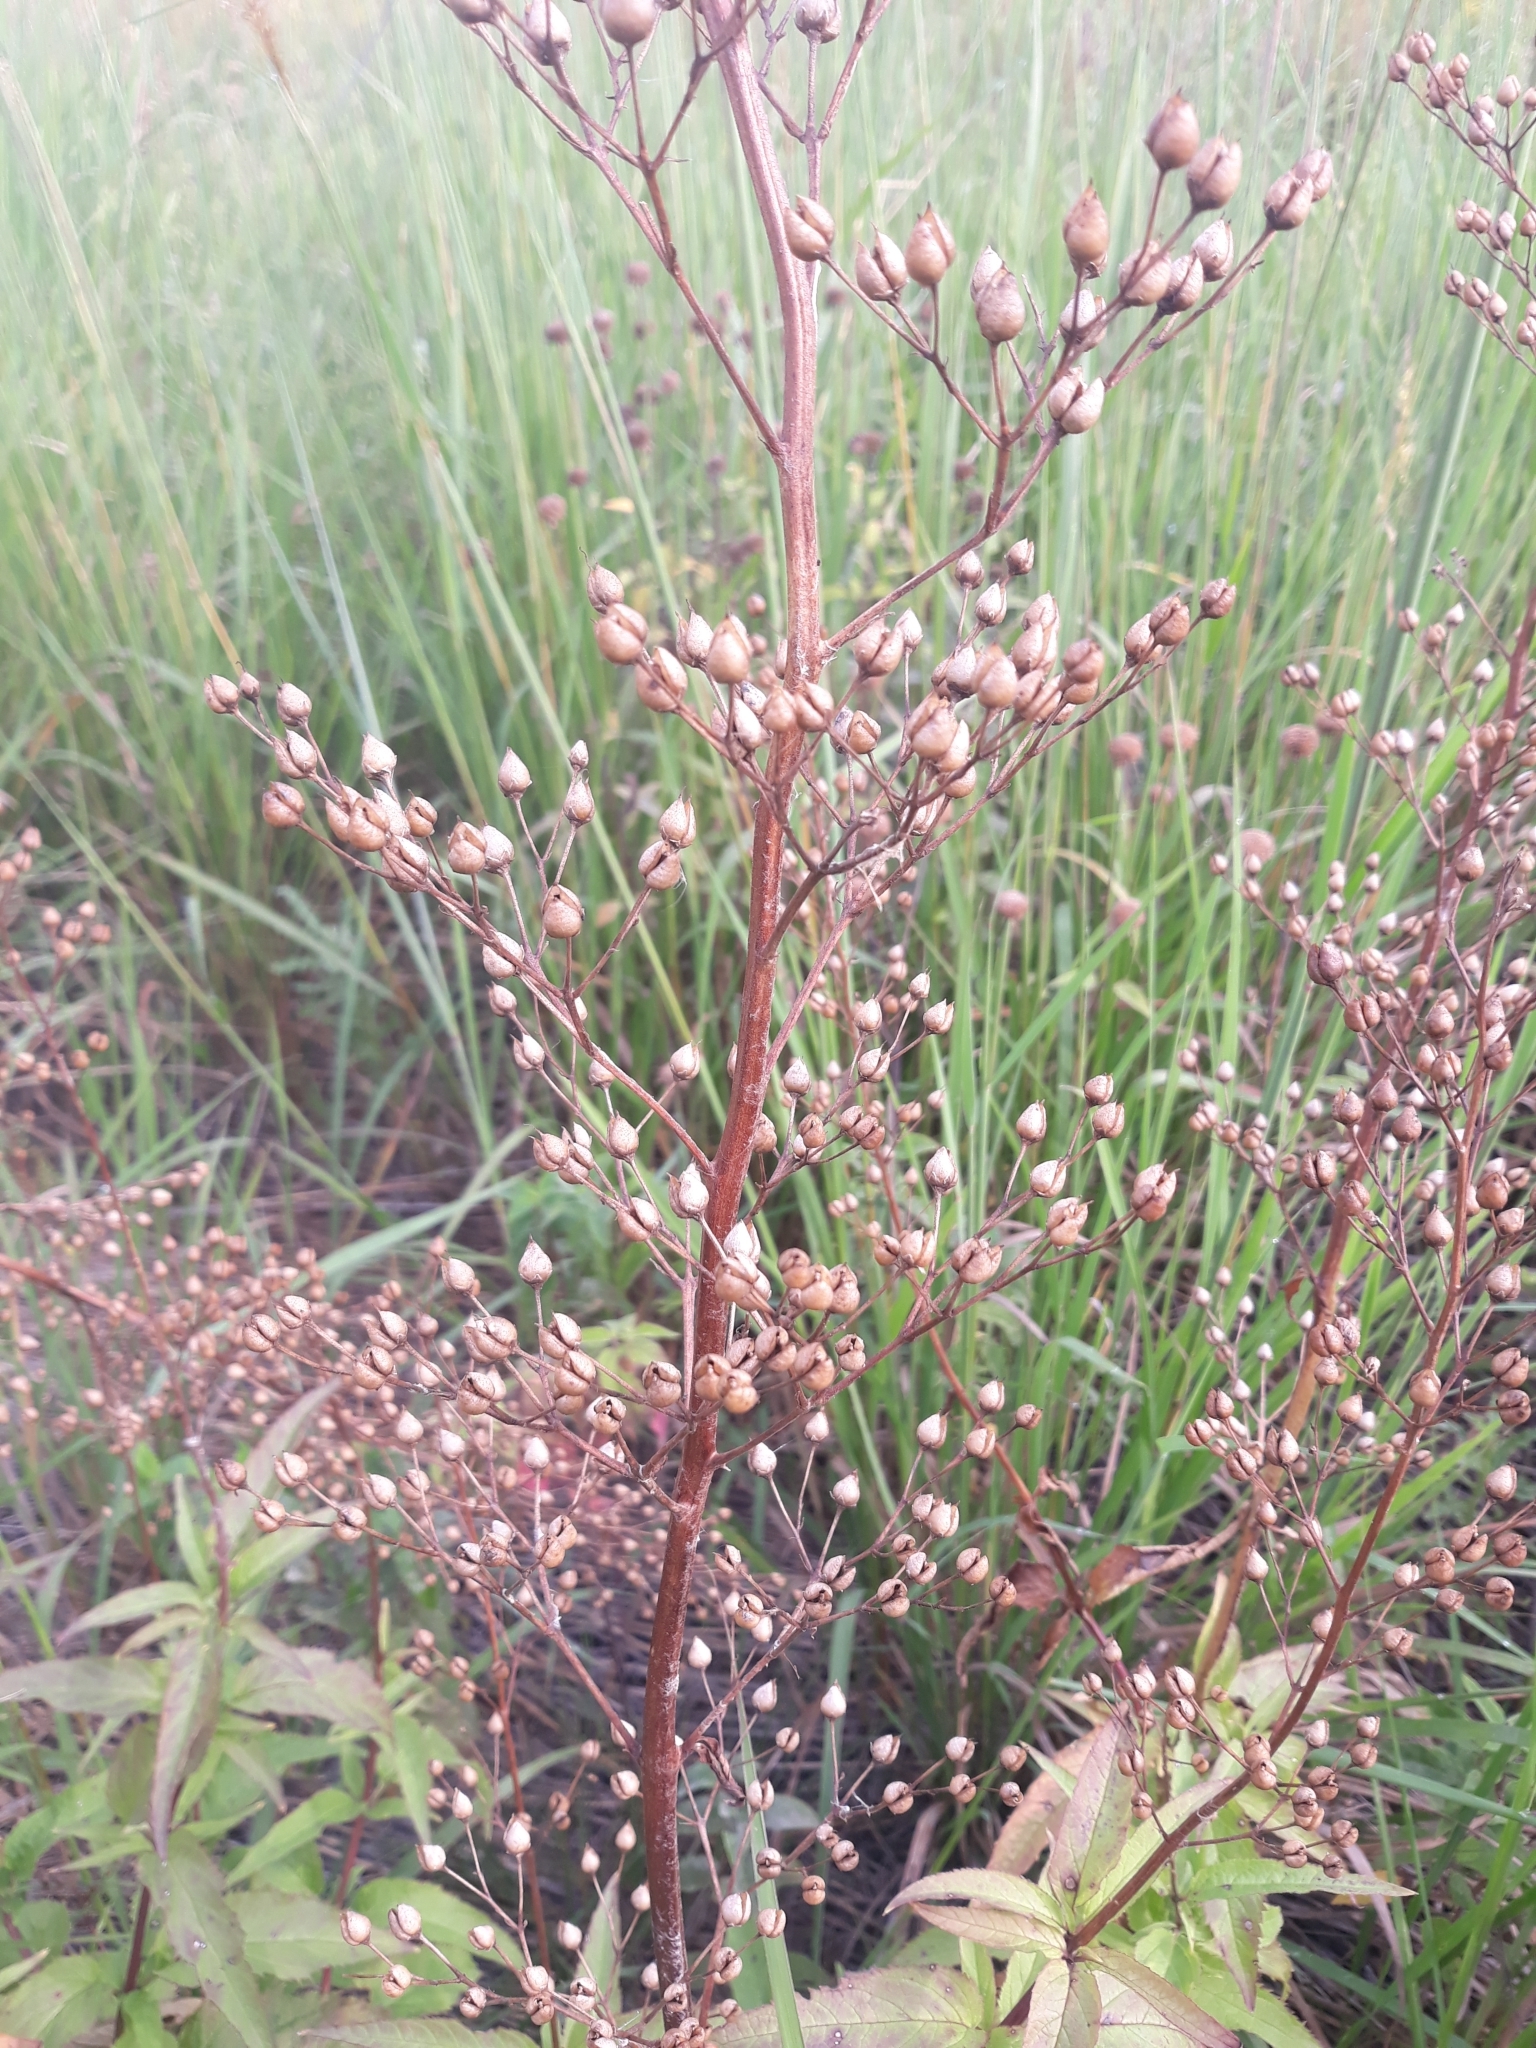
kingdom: Plantae
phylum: Tracheophyta
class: Magnoliopsida
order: Lamiales
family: Scrophulariaceae
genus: Scrophularia
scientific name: Scrophularia lanceolata
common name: American figwort
